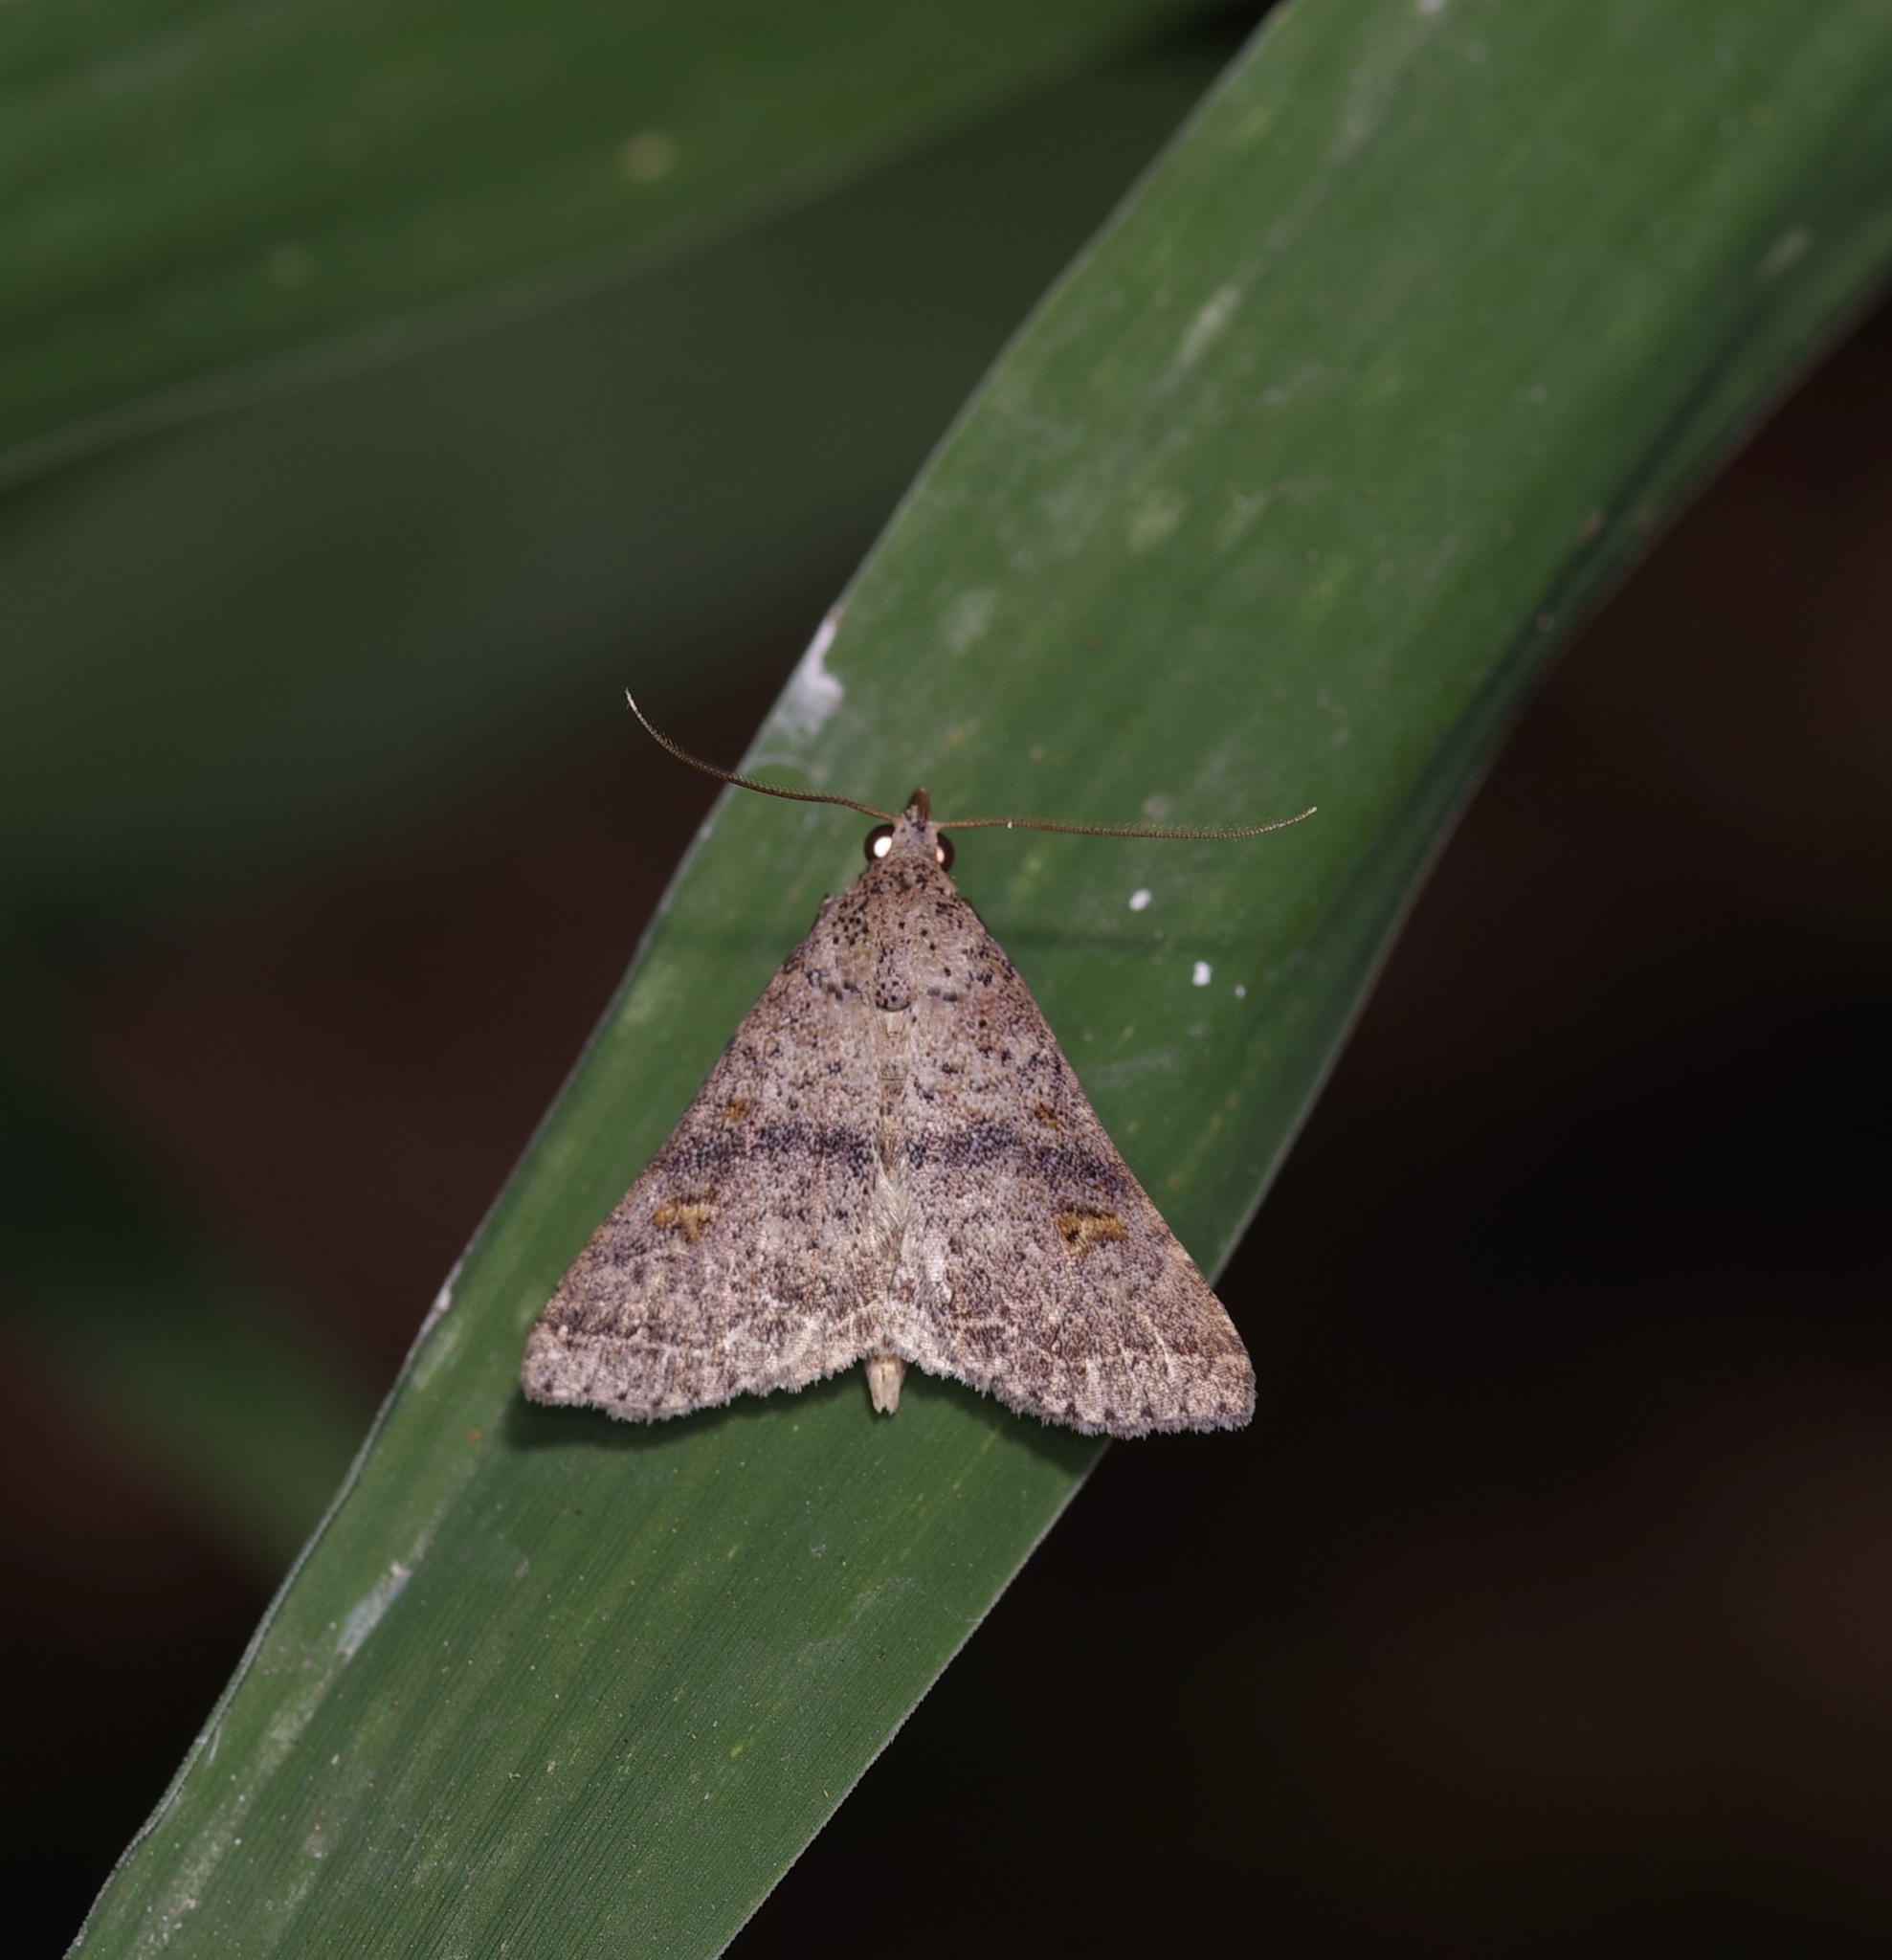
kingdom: Animalia
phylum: Arthropoda
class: Insecta
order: Lepidoptera
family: Erebidae
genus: Bleptina
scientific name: Bleptina caradrinalis
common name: Bent-winged owlet
